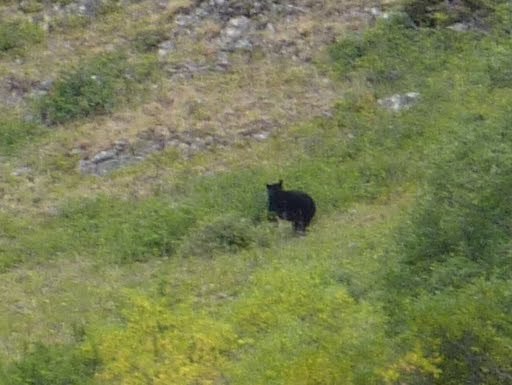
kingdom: Animalia
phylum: Chordata
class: Mammalia
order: Carnivora
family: Ursidae
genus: Ursus
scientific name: Ursus americanus
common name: American black bear
